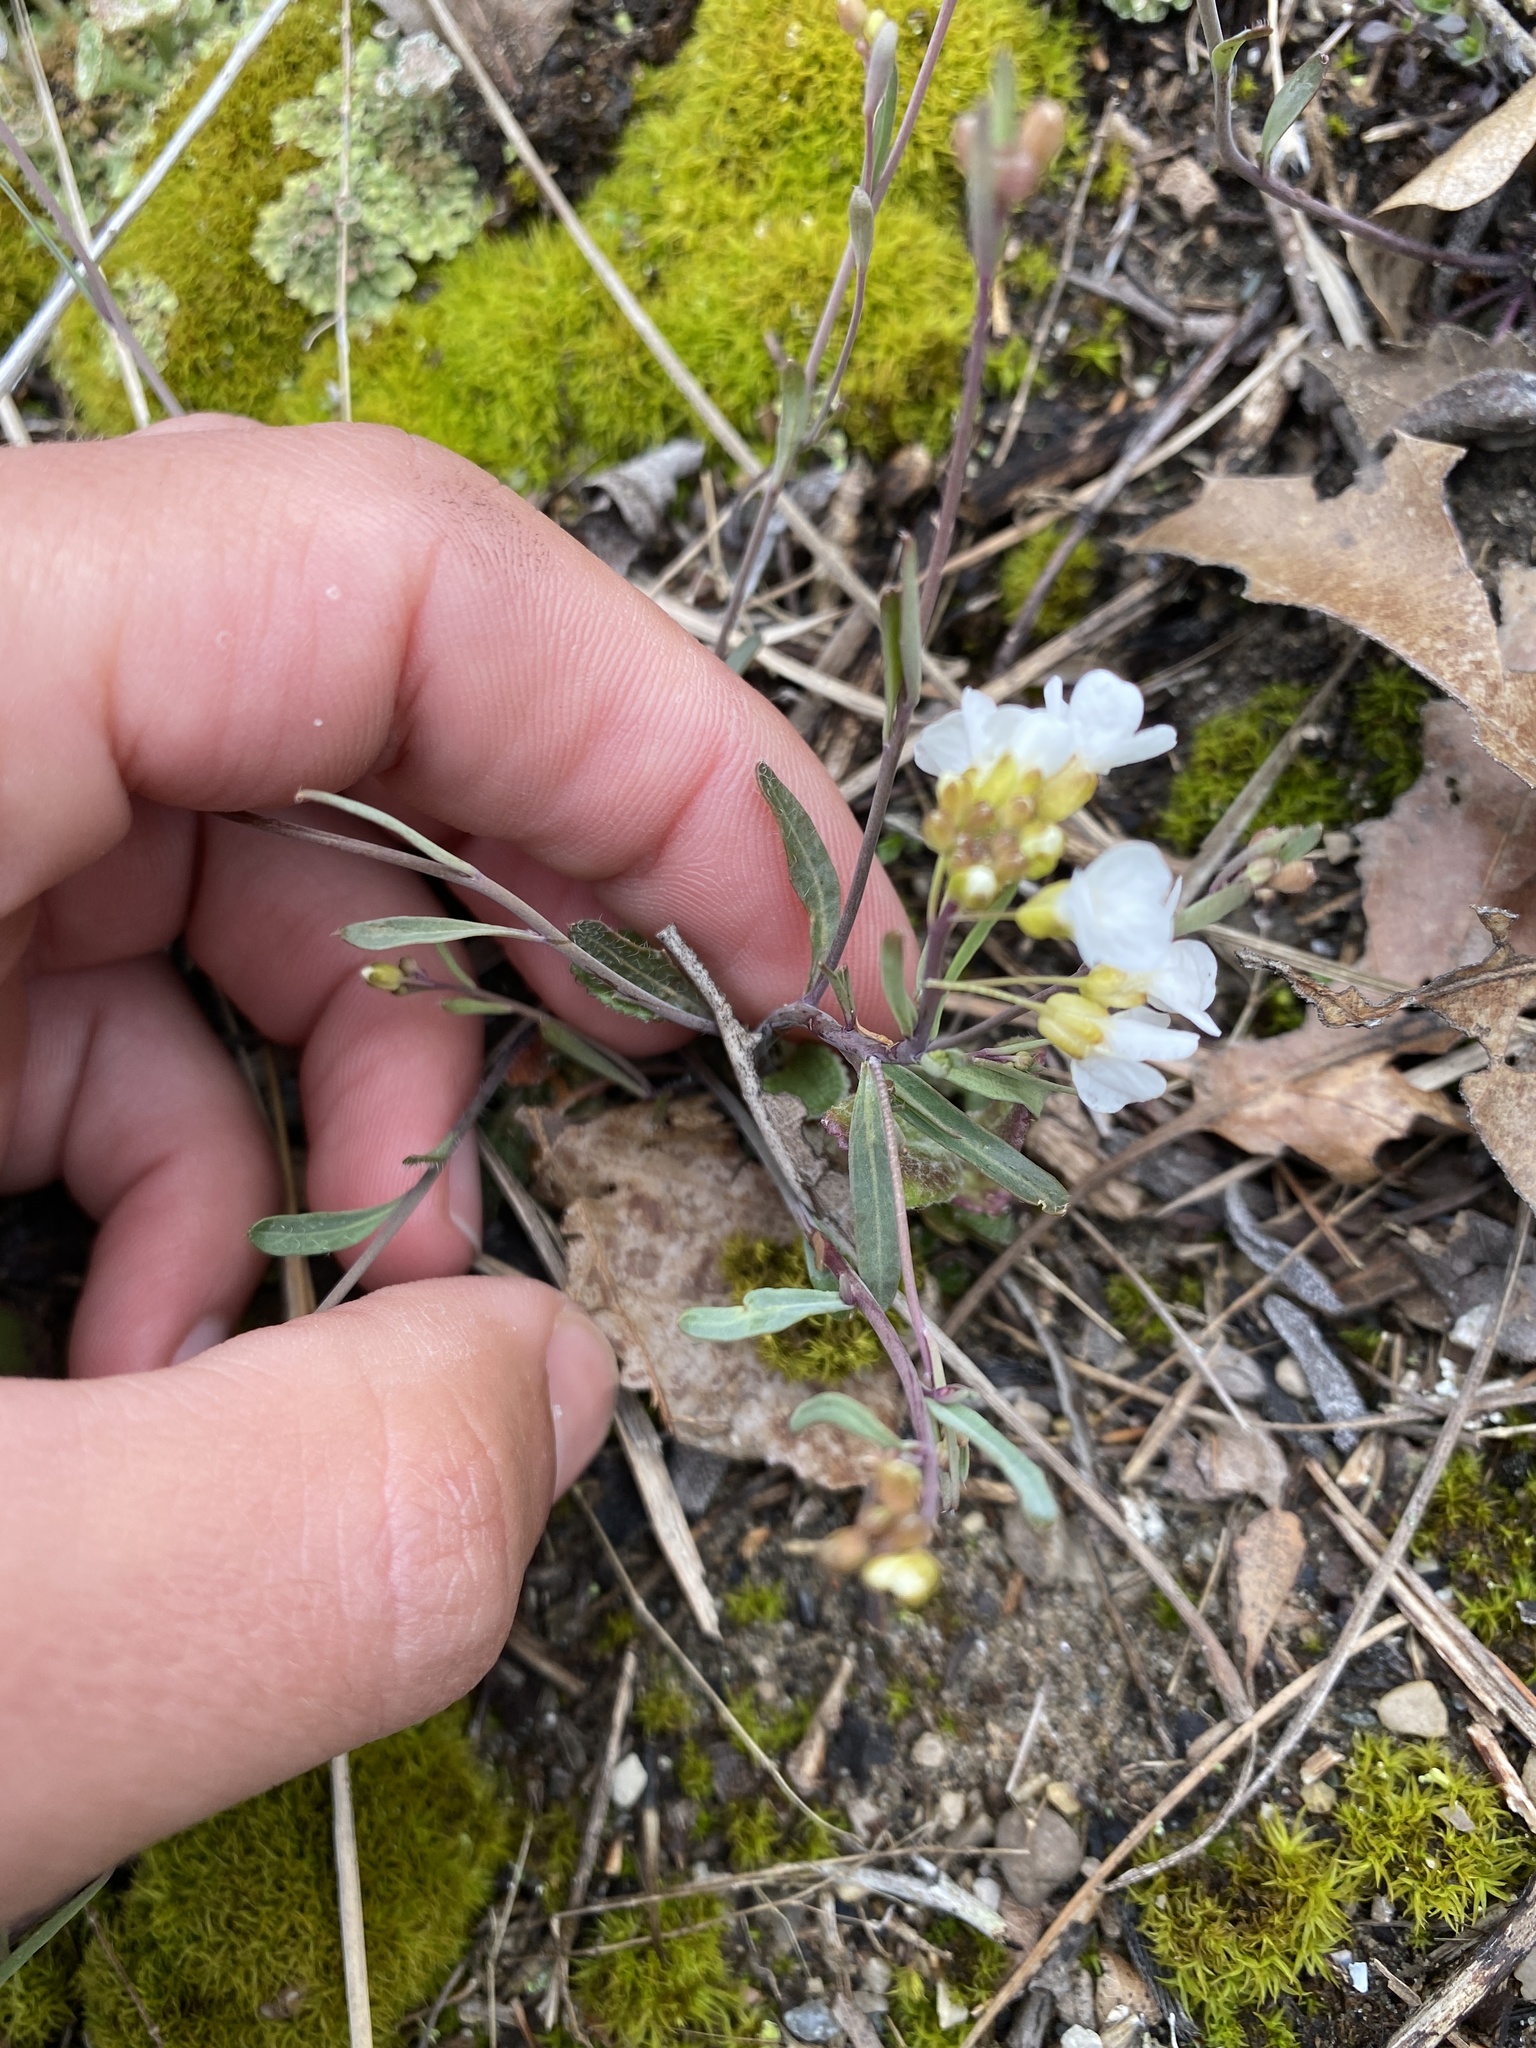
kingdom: Plantae
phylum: Tracheophyta
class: Magnoliopsida
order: Brassicales
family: Brassicaceae
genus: Arabidopsis
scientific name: Arabidopsis lyrata
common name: Lyrate rockcress
